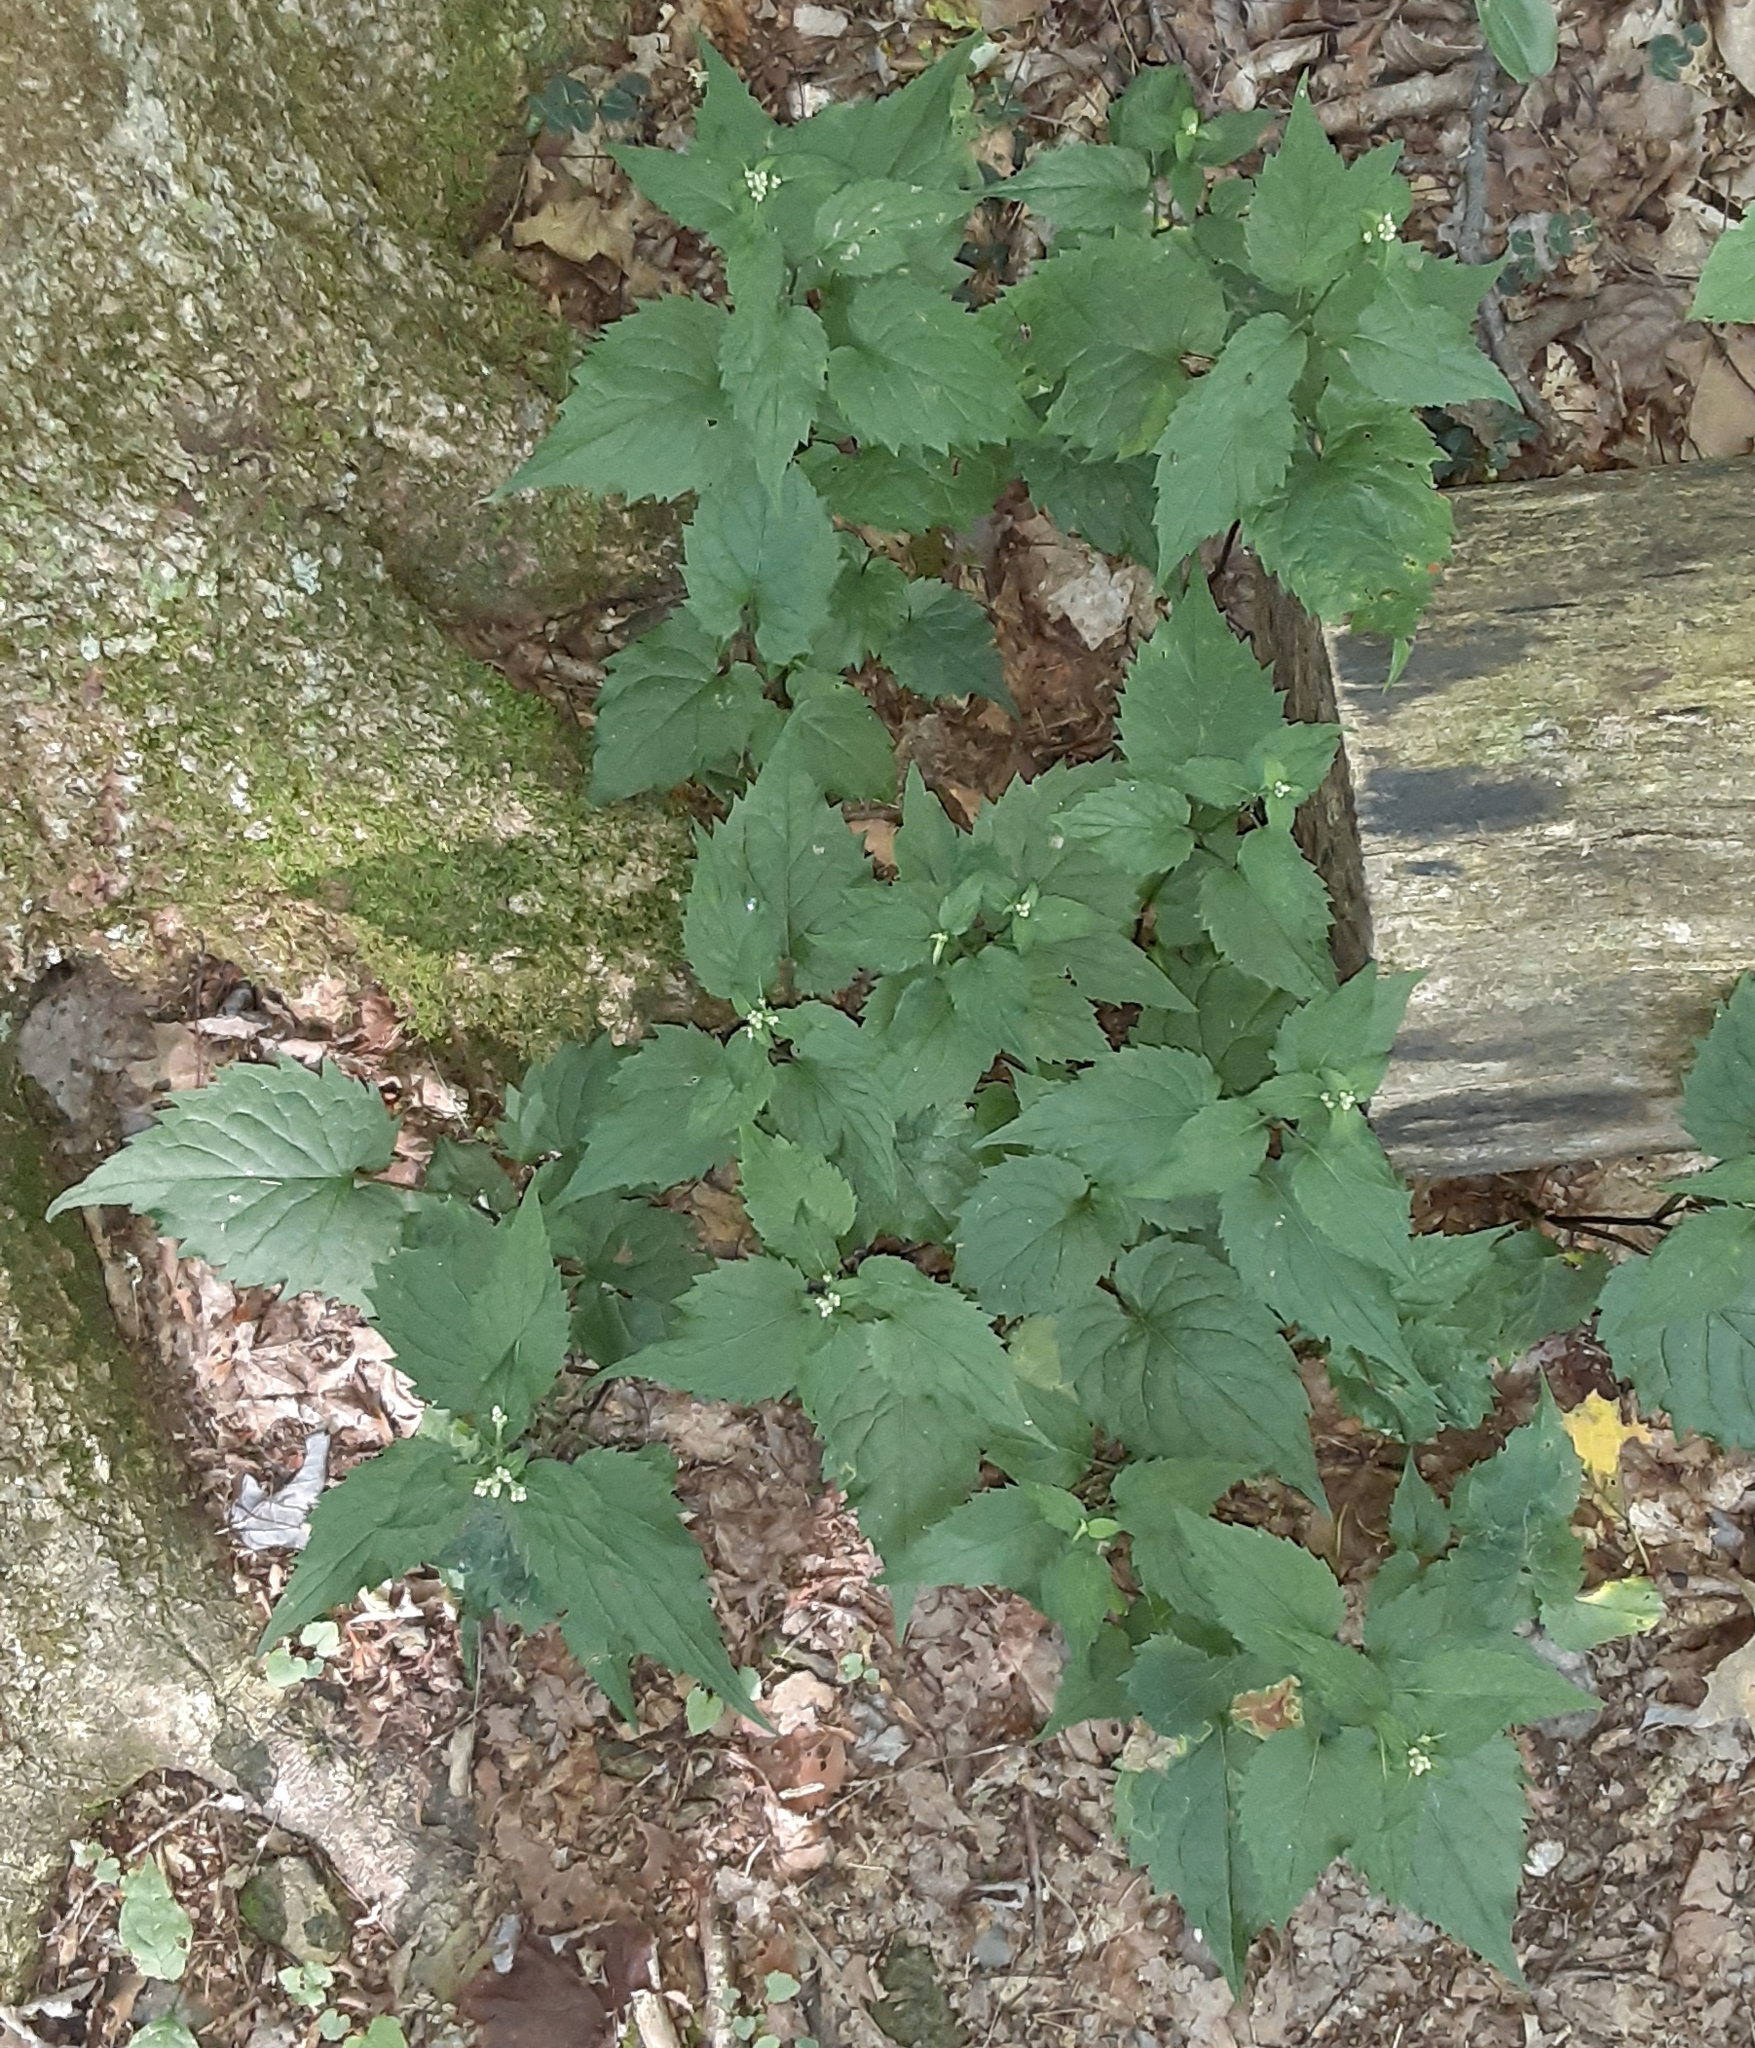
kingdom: Plantae
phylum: Tracheophyta
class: Magnoliopsida
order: Asterales
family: Asteraceae
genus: Eurybia
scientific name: Eurybia divaricata
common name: White wood aster
